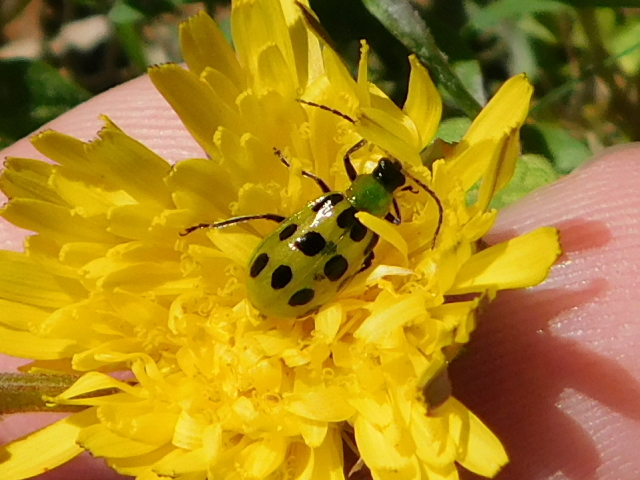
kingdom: Animalia
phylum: Arthropoda
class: Insecta
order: Coleoptera
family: Chrysomelidae
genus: Diabrotica
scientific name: Diabrotica undecimpunctata
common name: Spotted cucumber beetle
